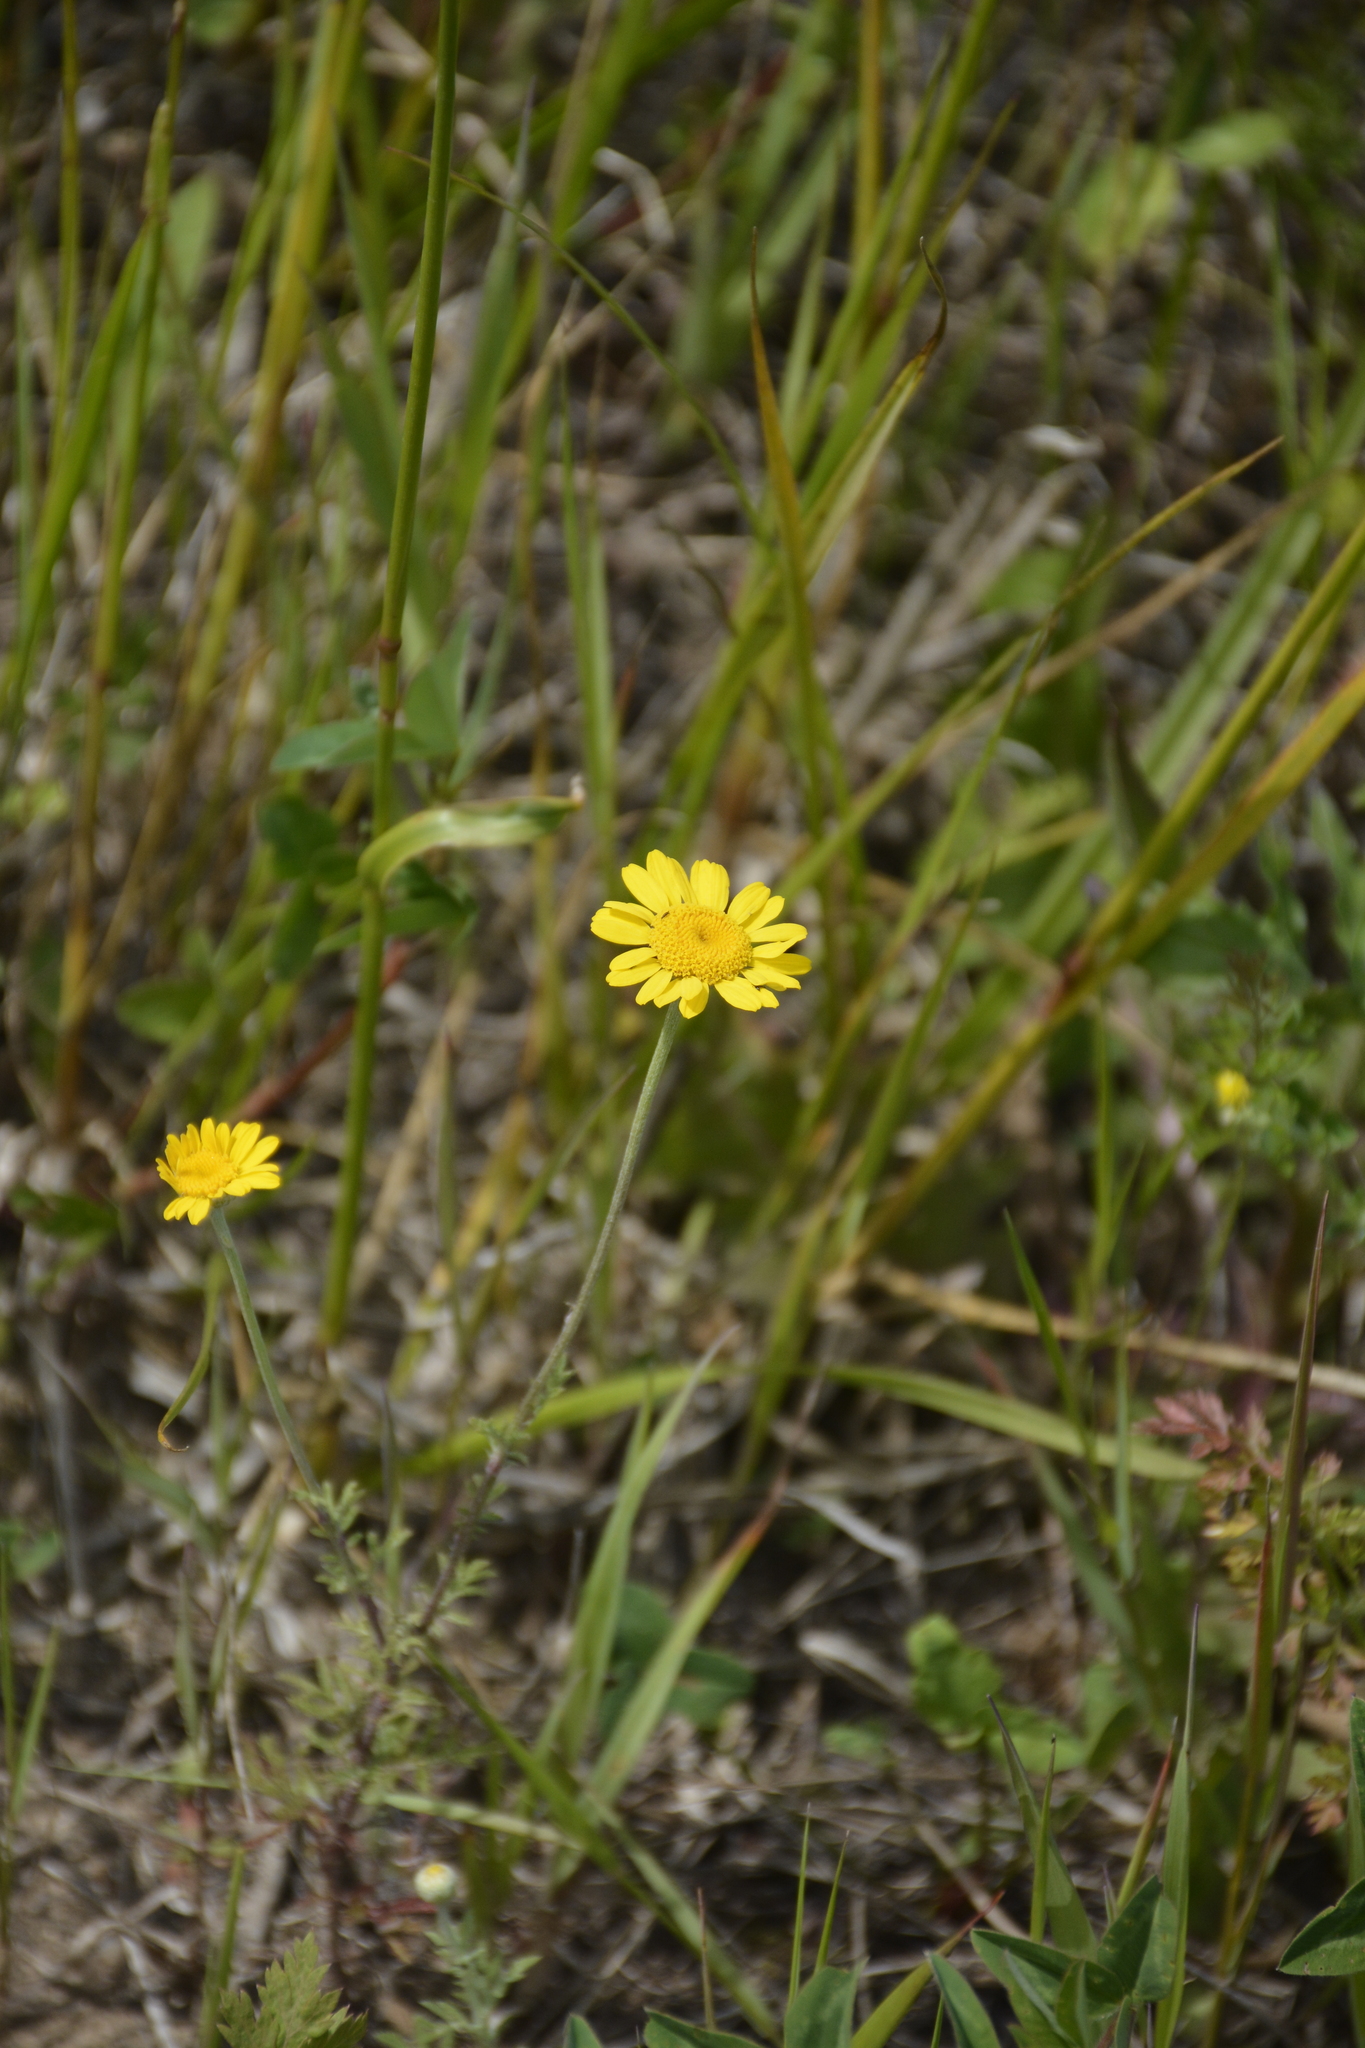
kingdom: Plantae
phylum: Tracheophyta
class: Magnoliopsida
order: Asterales
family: Asteraceae
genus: Cota
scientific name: Cota tinctoria
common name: Golden chamomile
